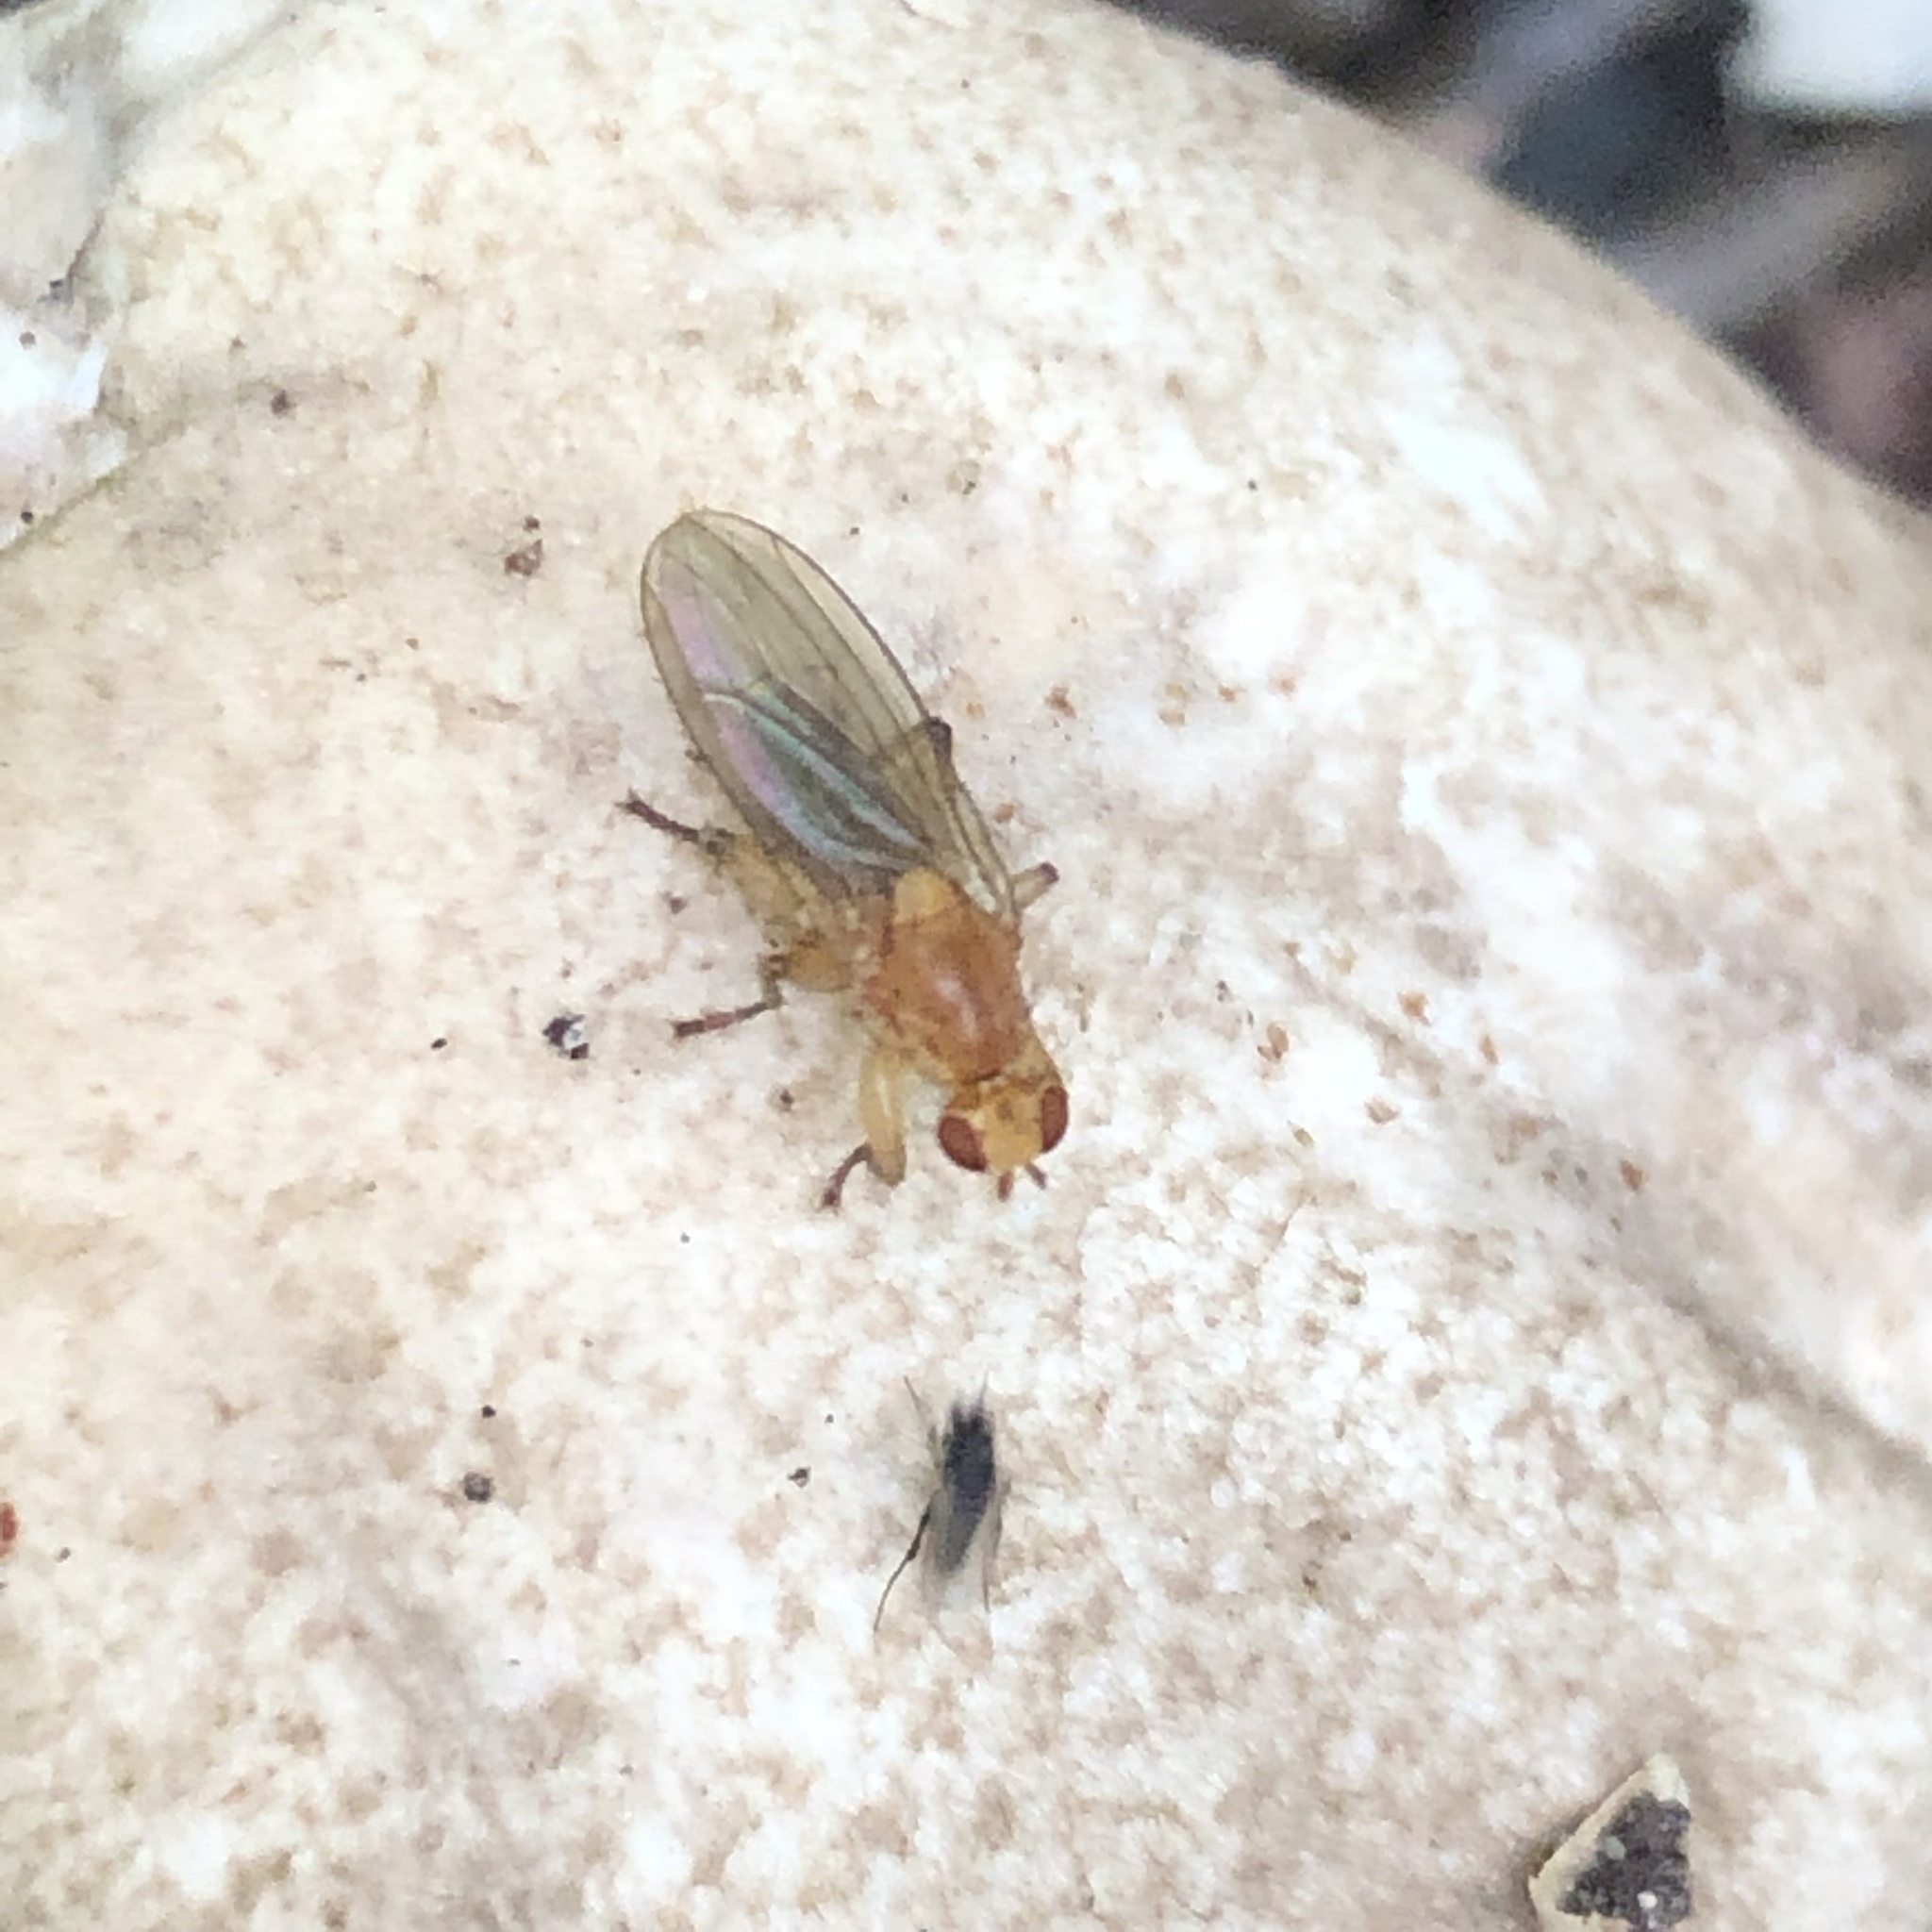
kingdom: Animalia
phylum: Arthropoda
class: Insecta
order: Diptera
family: Heleomyzidae
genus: Suillia
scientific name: Suillia convergens
